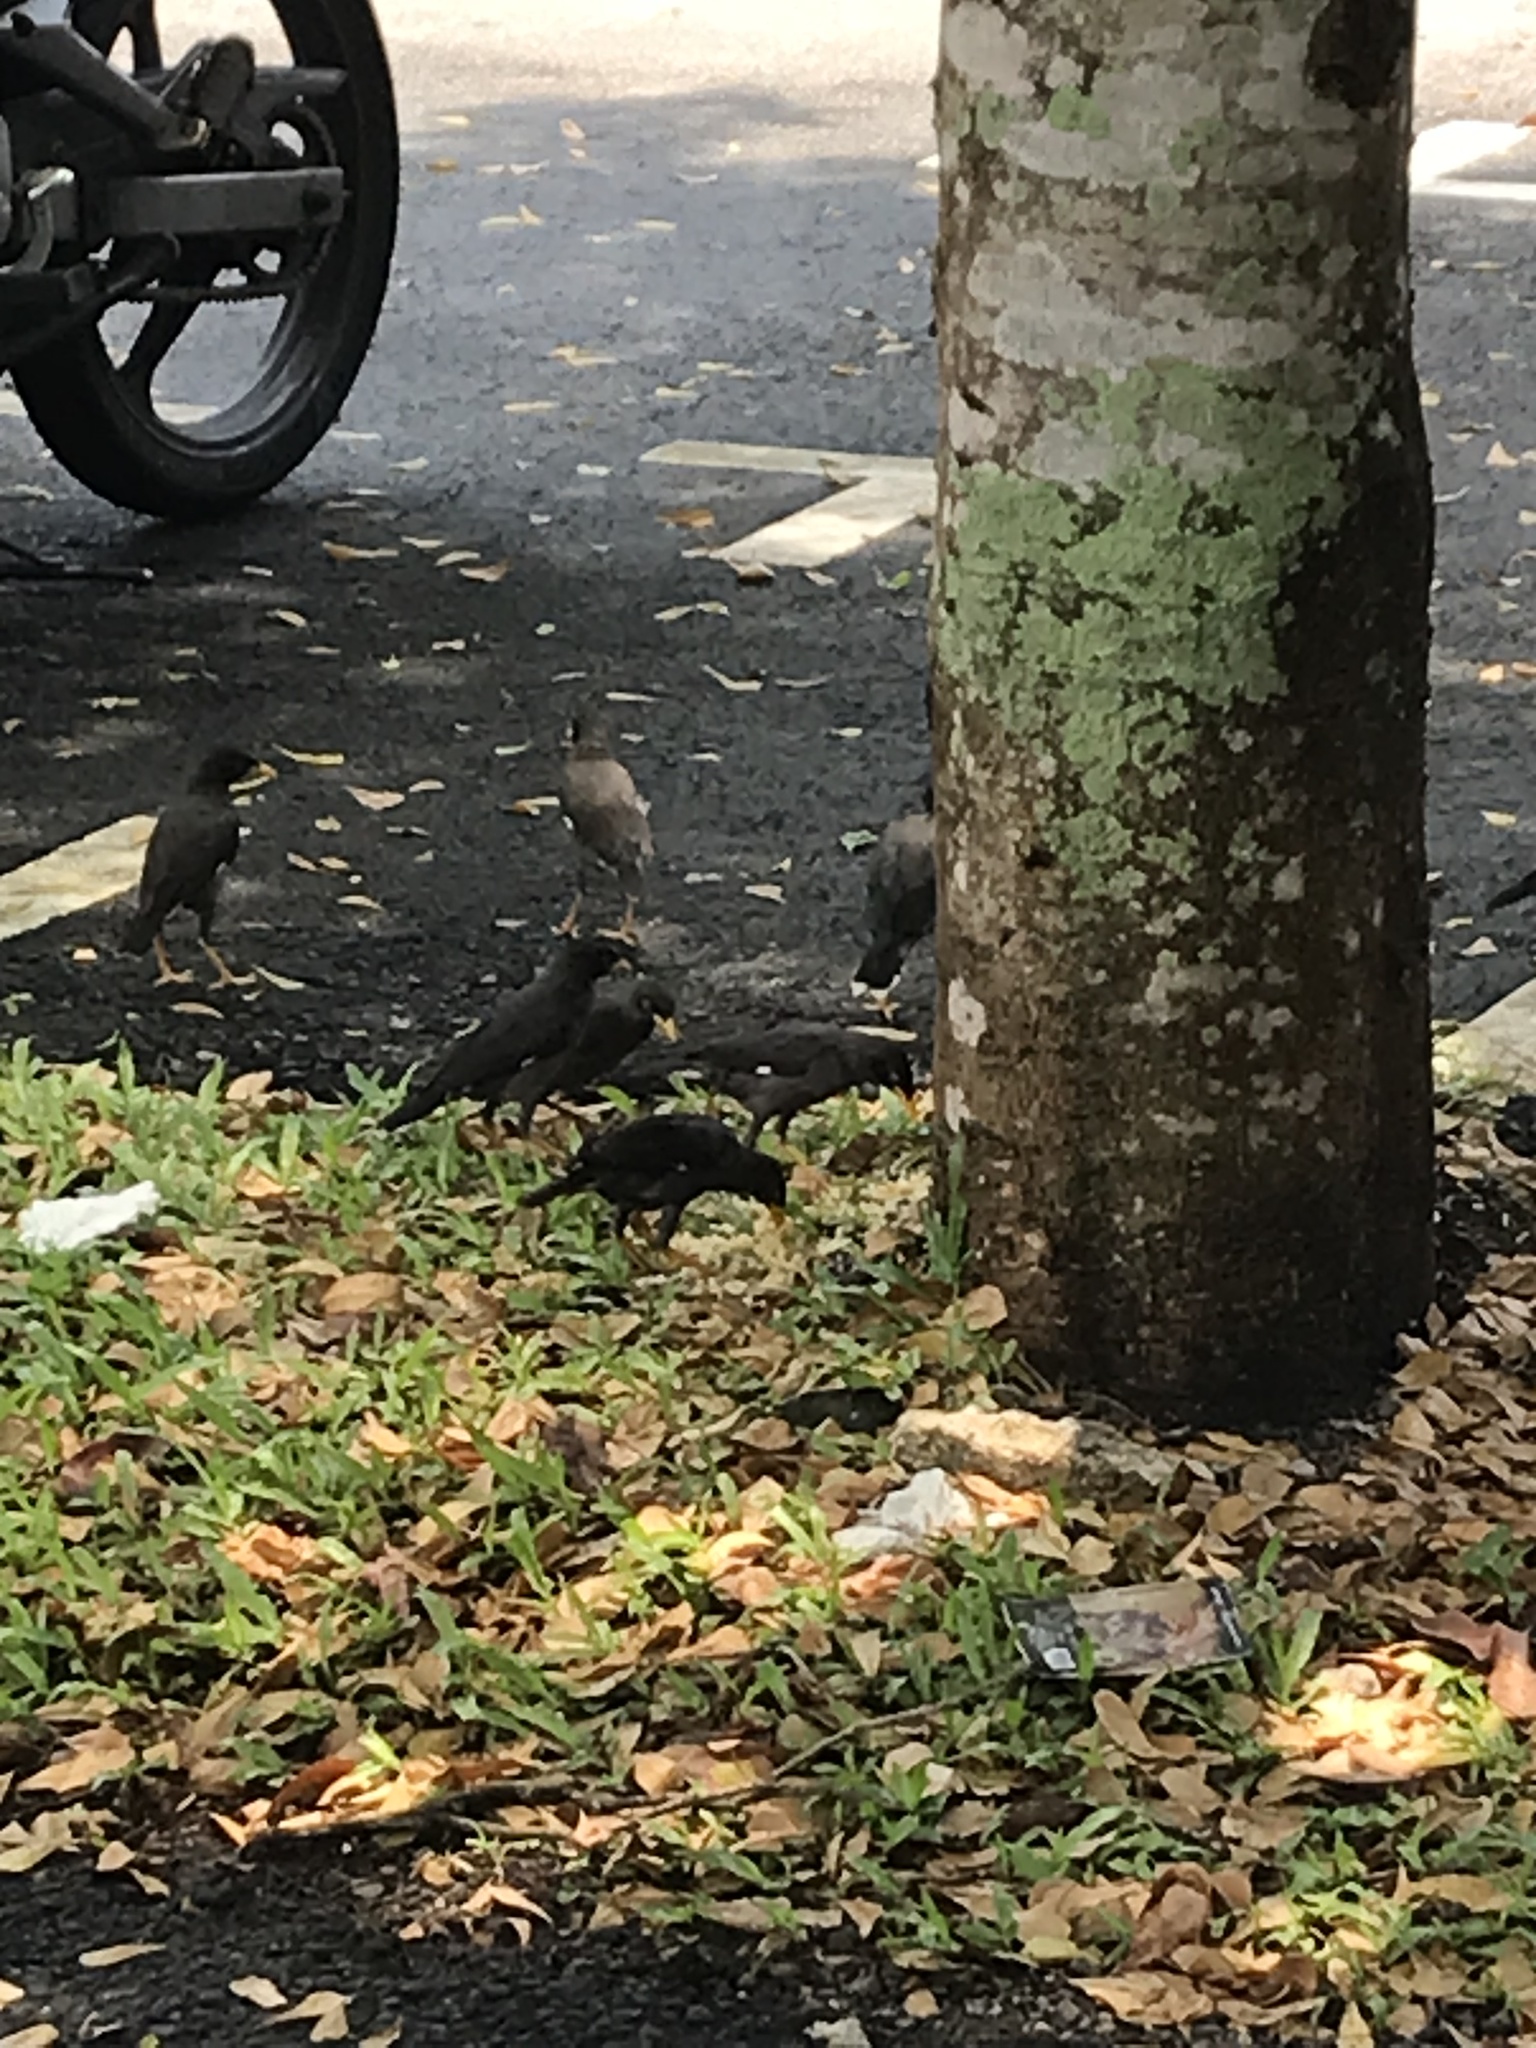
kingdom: Animalia
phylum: Chordata
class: Aves
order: Passeriformes
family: Sturnidae
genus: Acridotheres
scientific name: Acridotheres javanicus
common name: Javan myna
